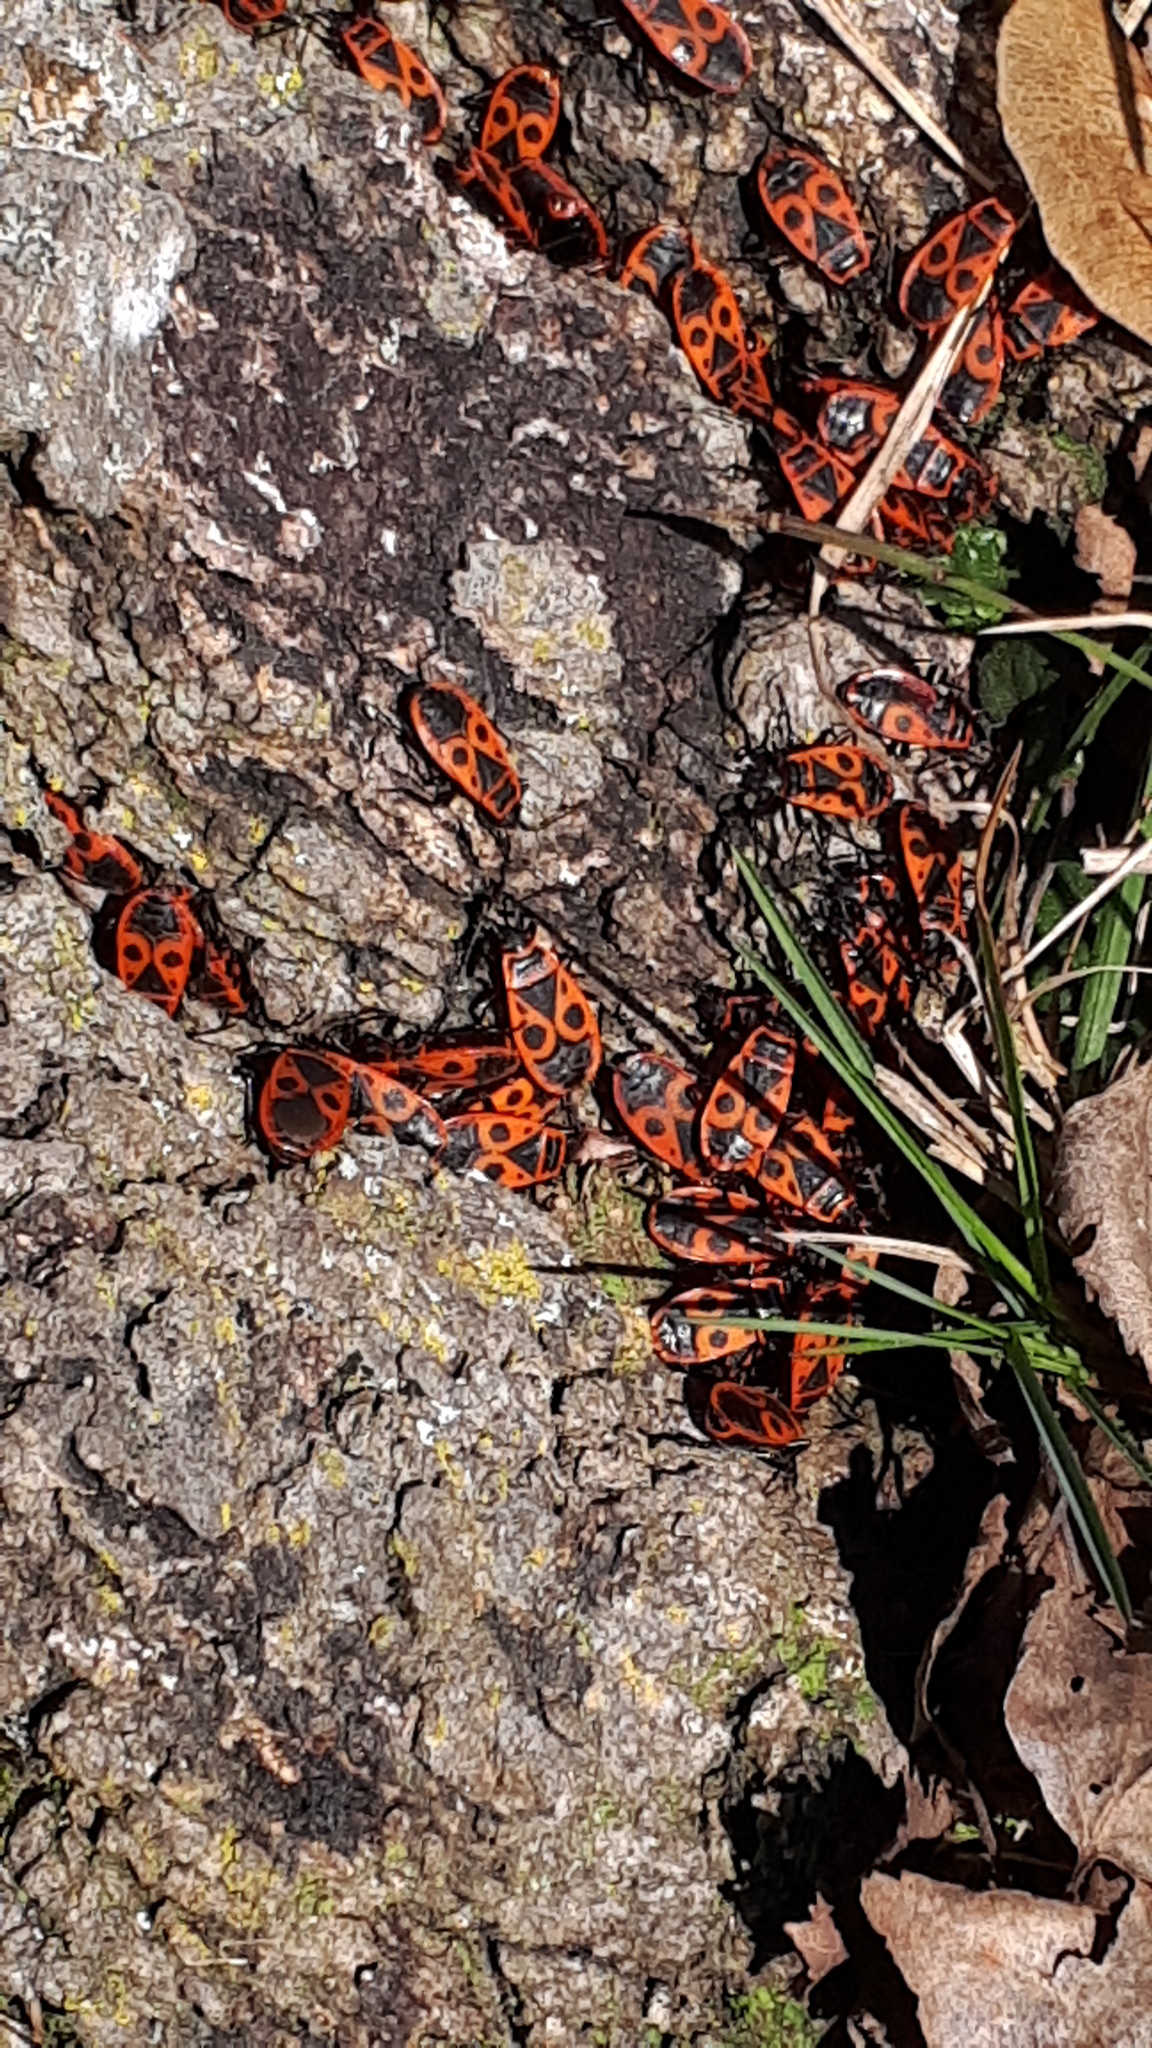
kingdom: Animalia
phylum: Arthropoda
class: Insecta
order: Hemiptera
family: Pyrrhocoridae
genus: Pyrrhocoris
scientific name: Pyrrhocoris apterus
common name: Firebug
